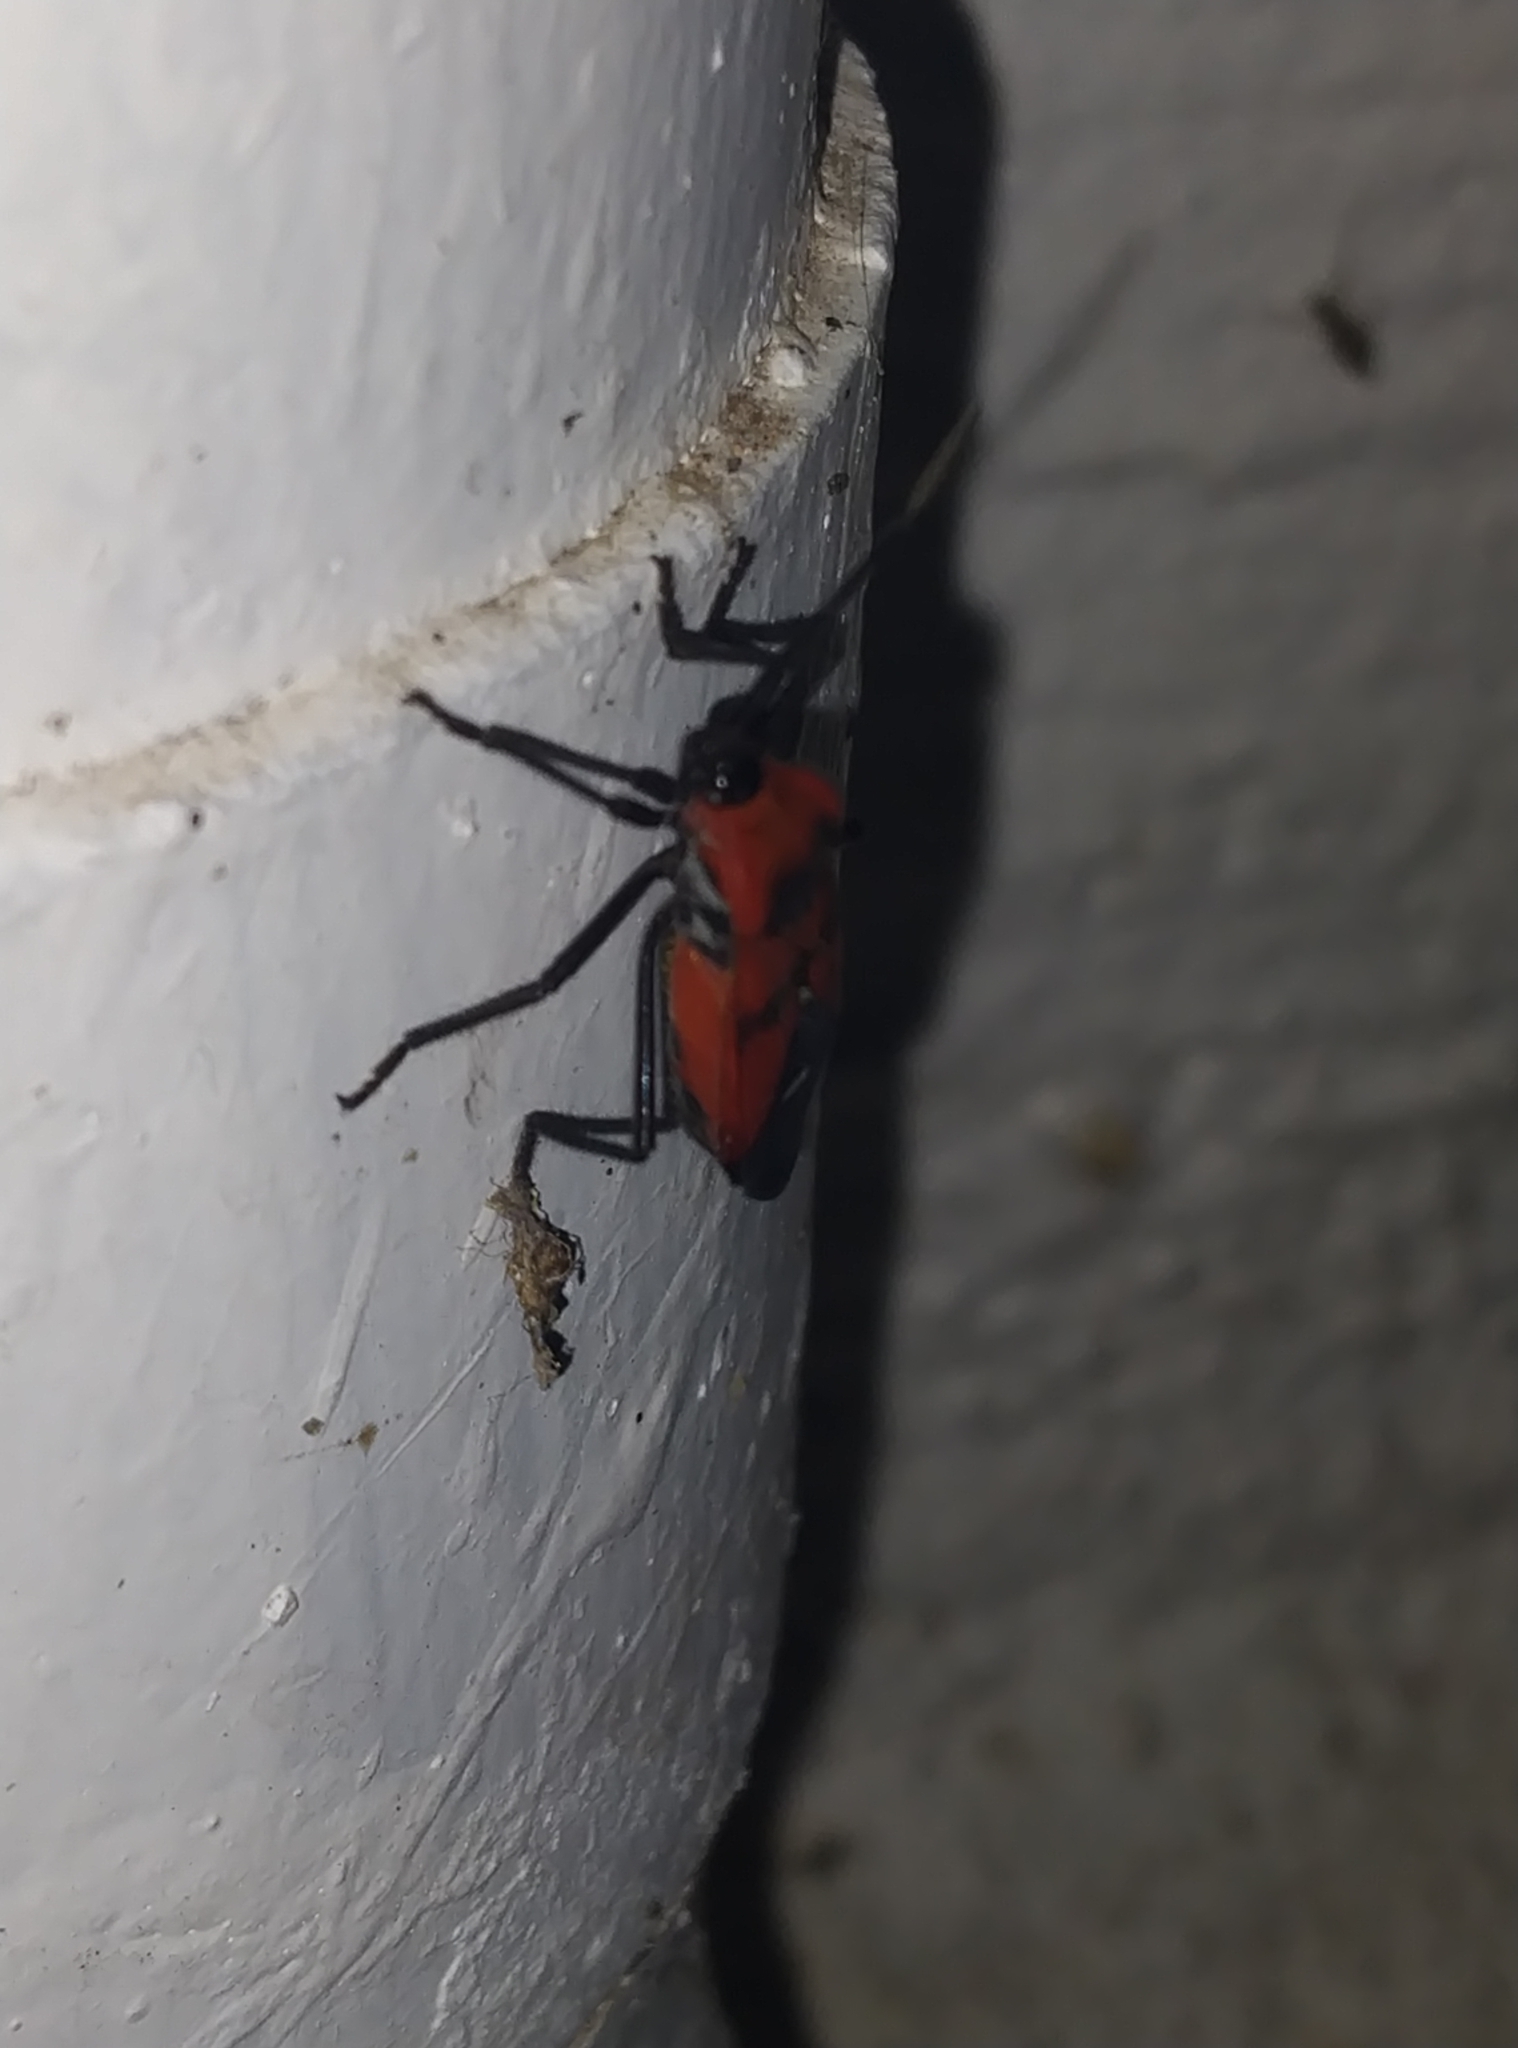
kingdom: Animalia
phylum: Arthropoda
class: Insecta
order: Hemiptera
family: Lygaeidae
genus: Oncopeltus
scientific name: Oncopeltus nigriceps
